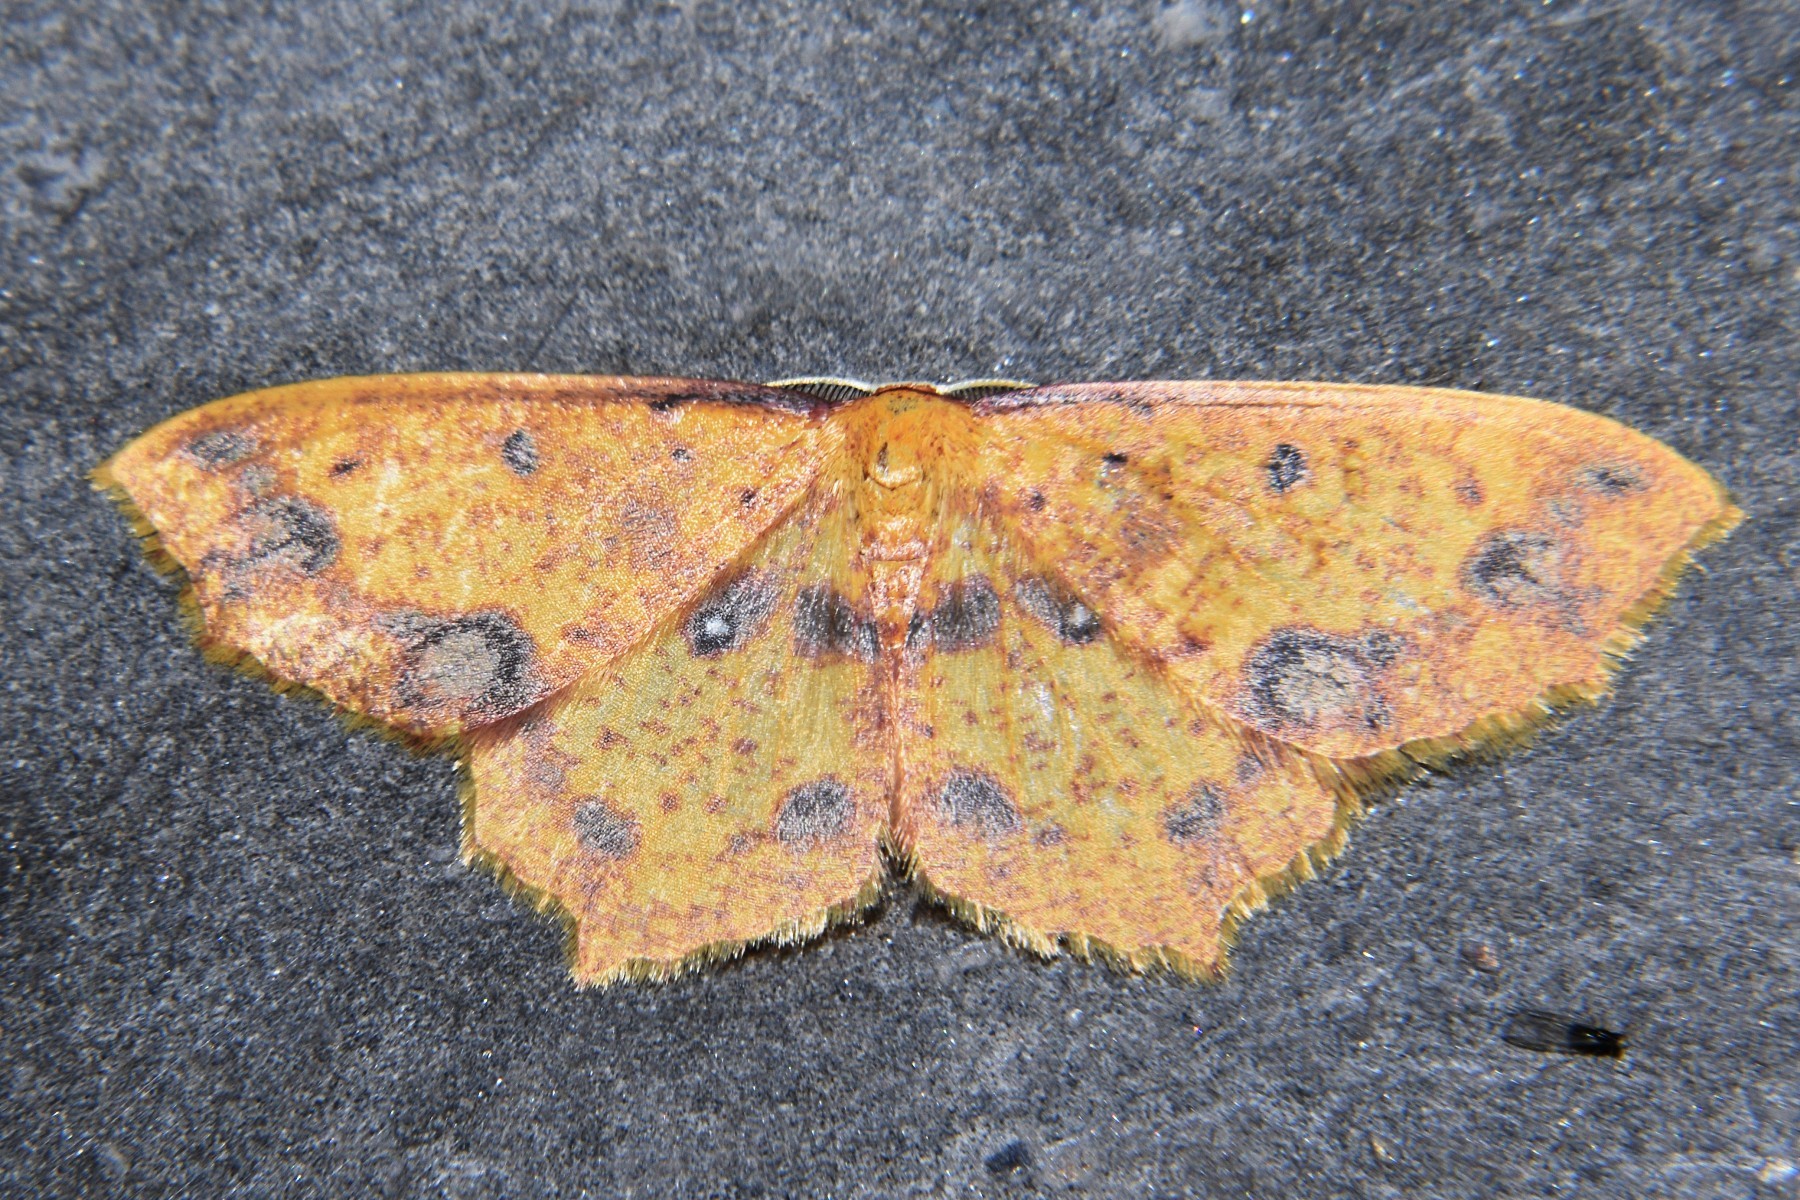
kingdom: Animalia
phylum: Arthropoda
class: Insecta
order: Lepidoptera
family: Geometridae
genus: Synegiodes
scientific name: Synegiodes histrionaria
